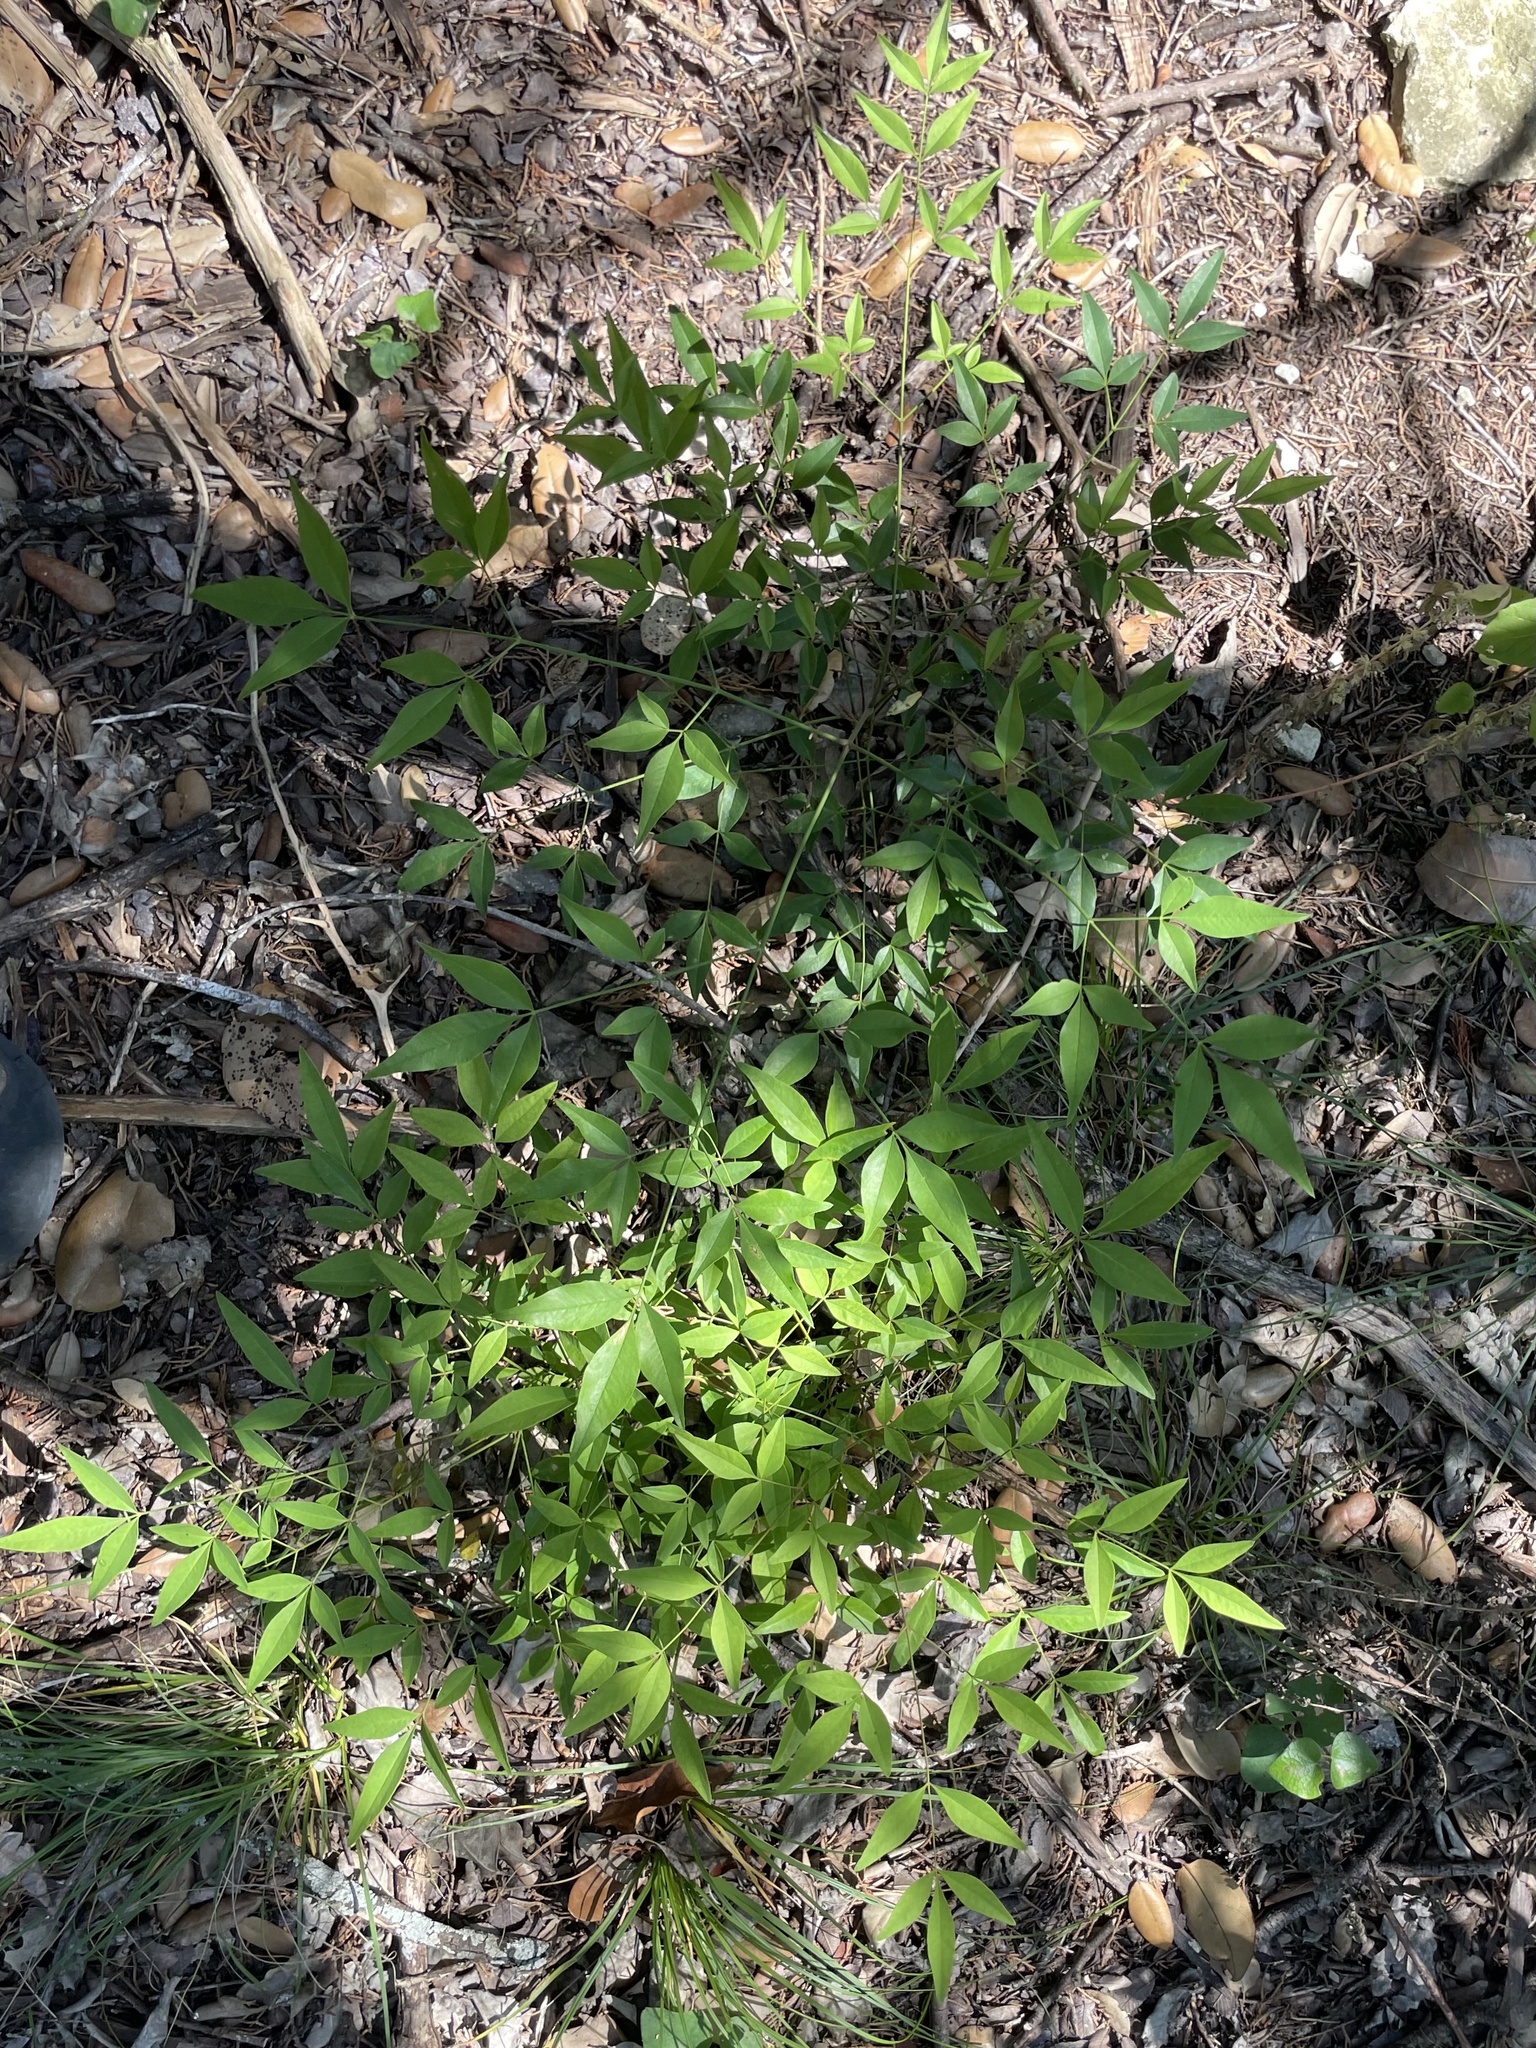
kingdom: Plantae
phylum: Tracheophyta
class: Magnoliopsida
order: Ranunculales
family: Berberidaceae
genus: Nandina
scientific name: Nandina domestica
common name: Sacred bamboo
